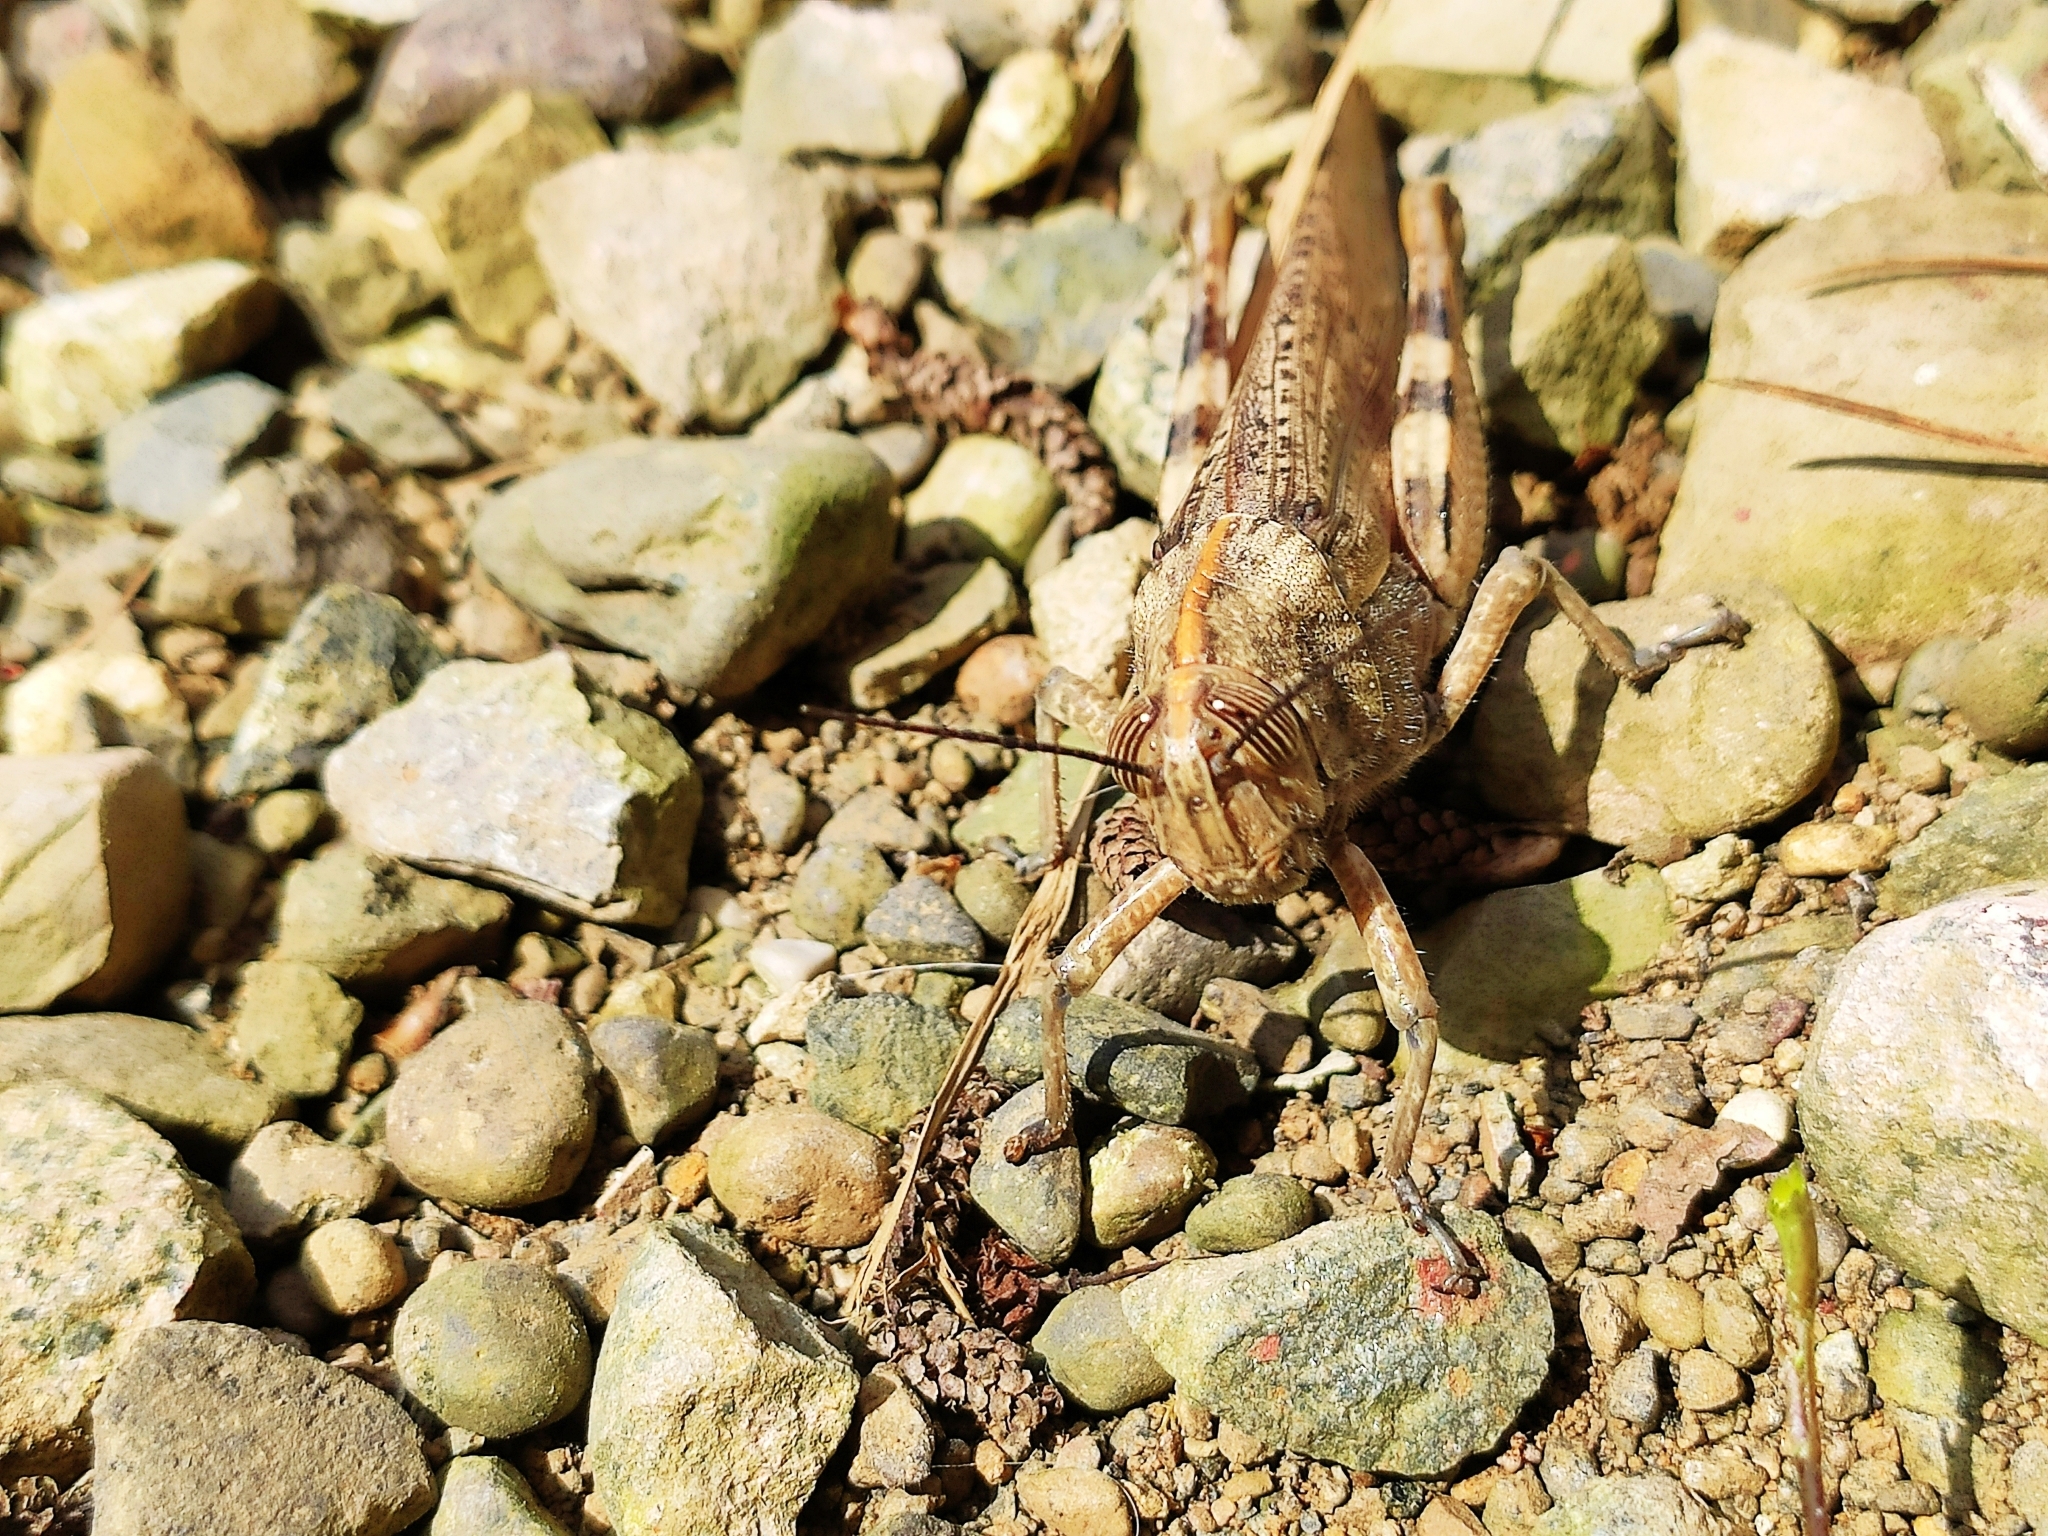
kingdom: Animalia
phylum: Arthropoda
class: Insecta
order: Orthoptera
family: Acrididae
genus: Anacridium
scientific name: Anacridium aegyptium
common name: Egyptian grasshopper
